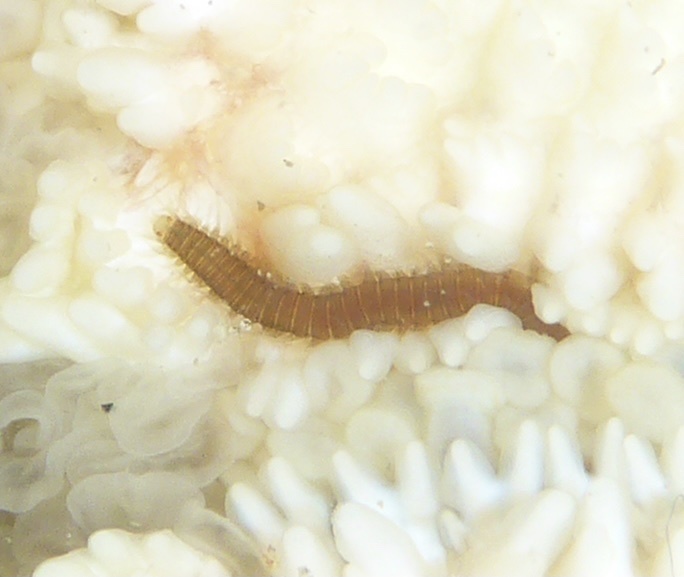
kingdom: Animalia
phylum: Annelida
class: Polychaeta
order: Phyllodocida
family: Hesionidae
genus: Oxydromus
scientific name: Oxydromus pugettensis
